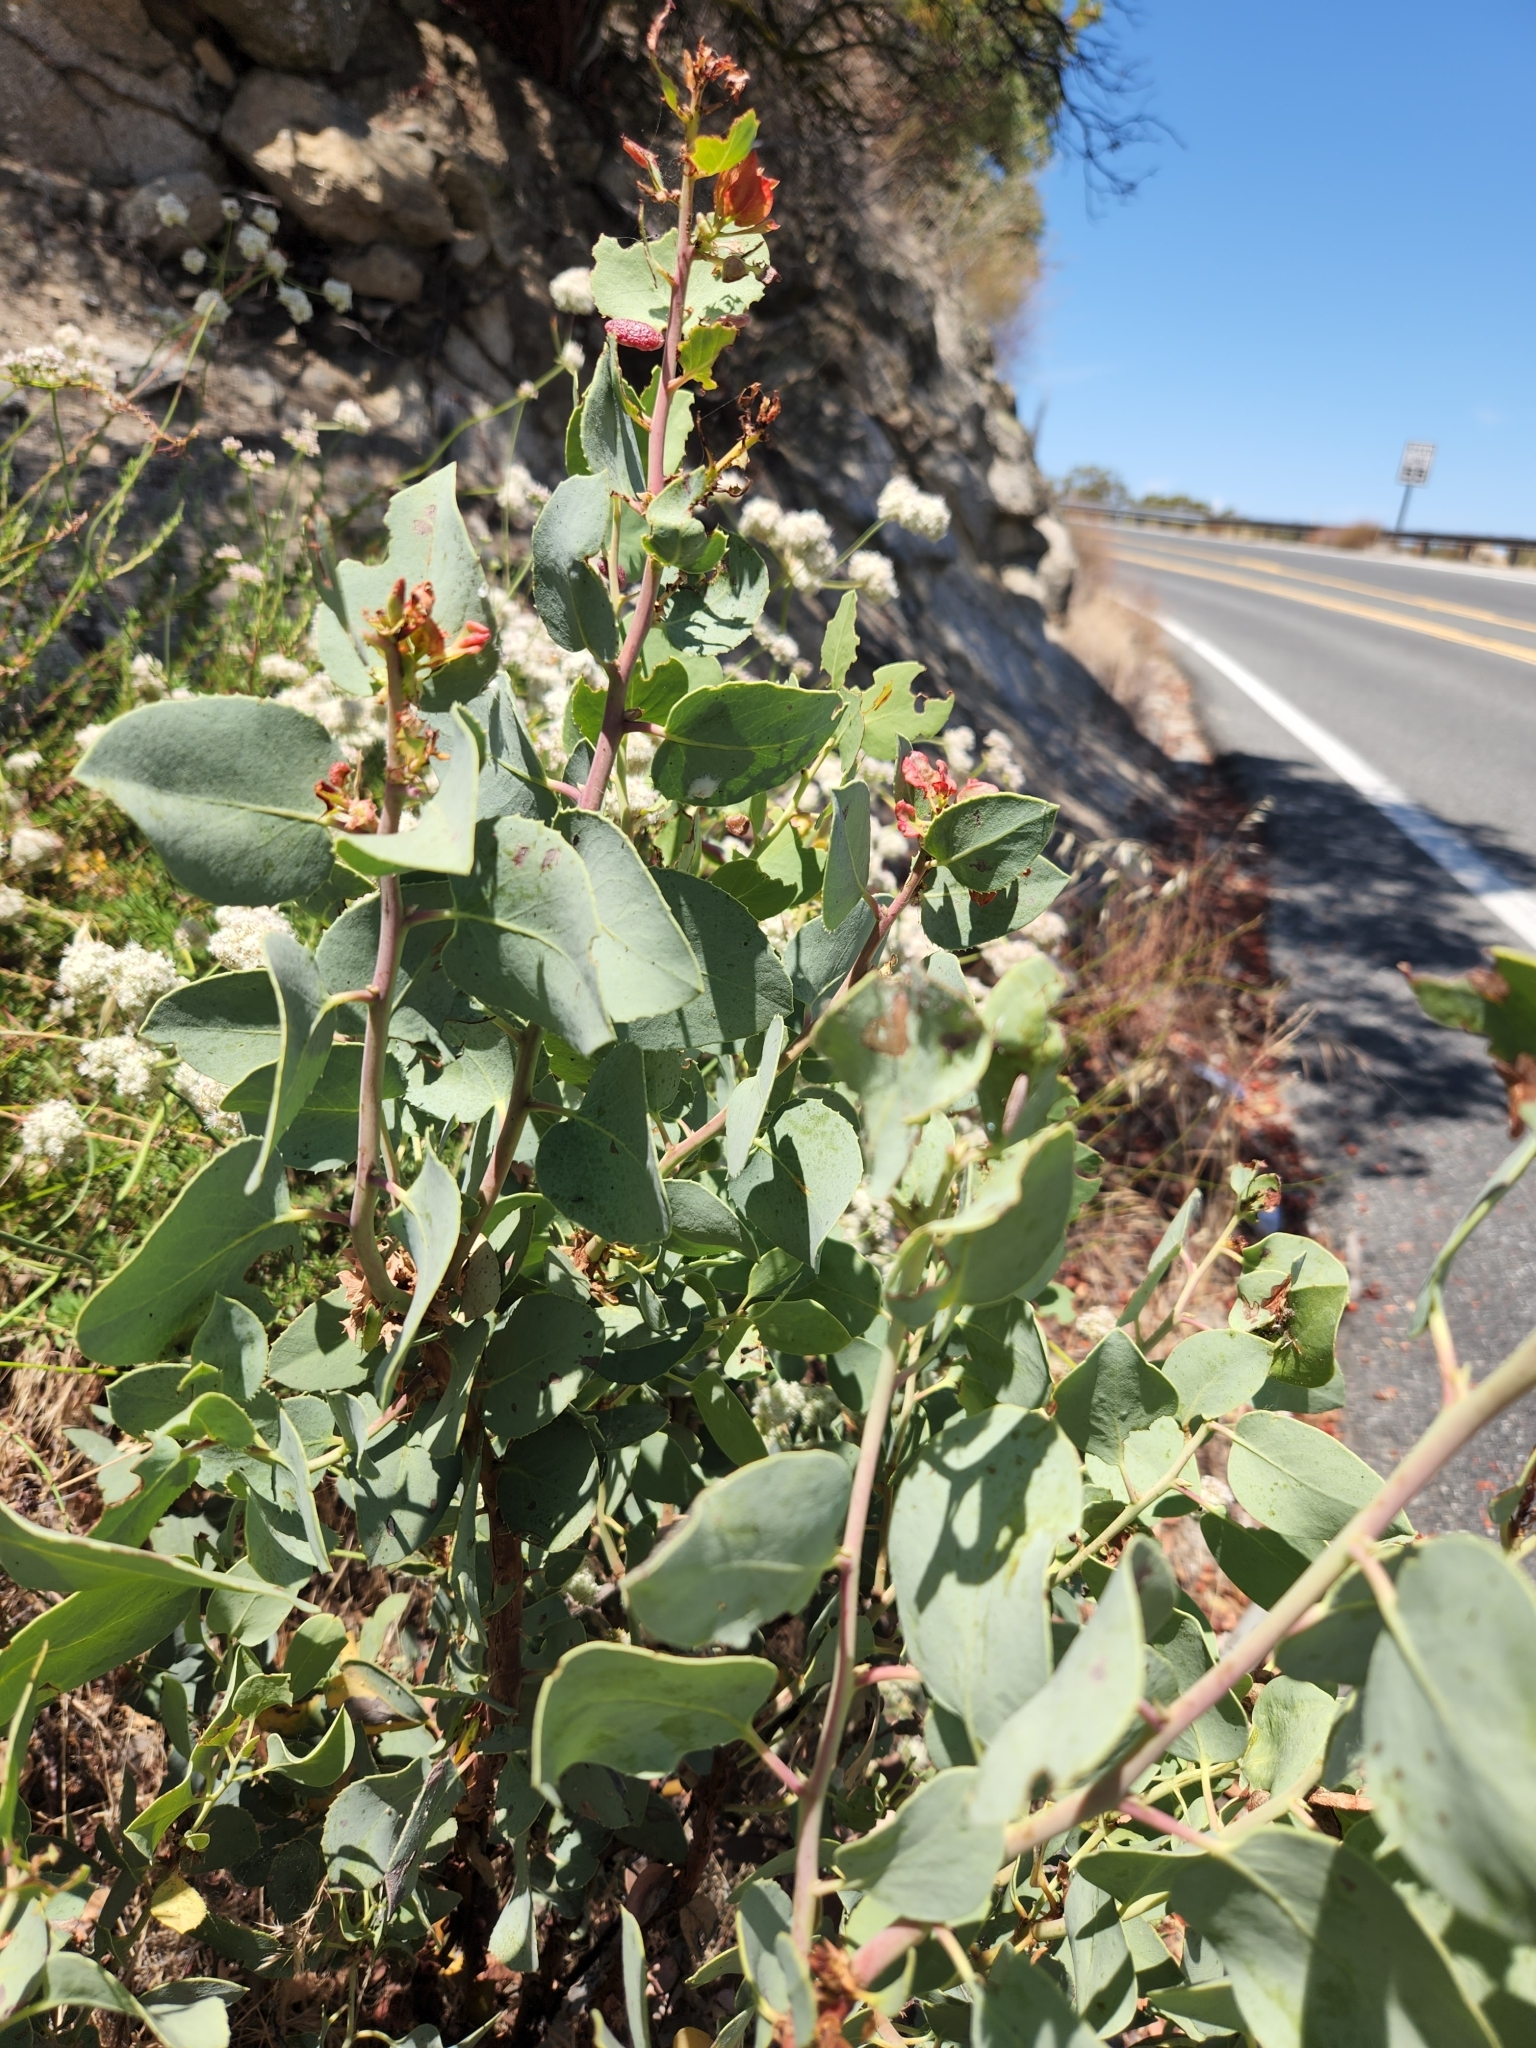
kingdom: Plantae
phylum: Tracheophyta
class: Magnoliopsida
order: Ericales
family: Ericaceae
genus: Arctostaphylos
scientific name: Arctostaphylos glauca
